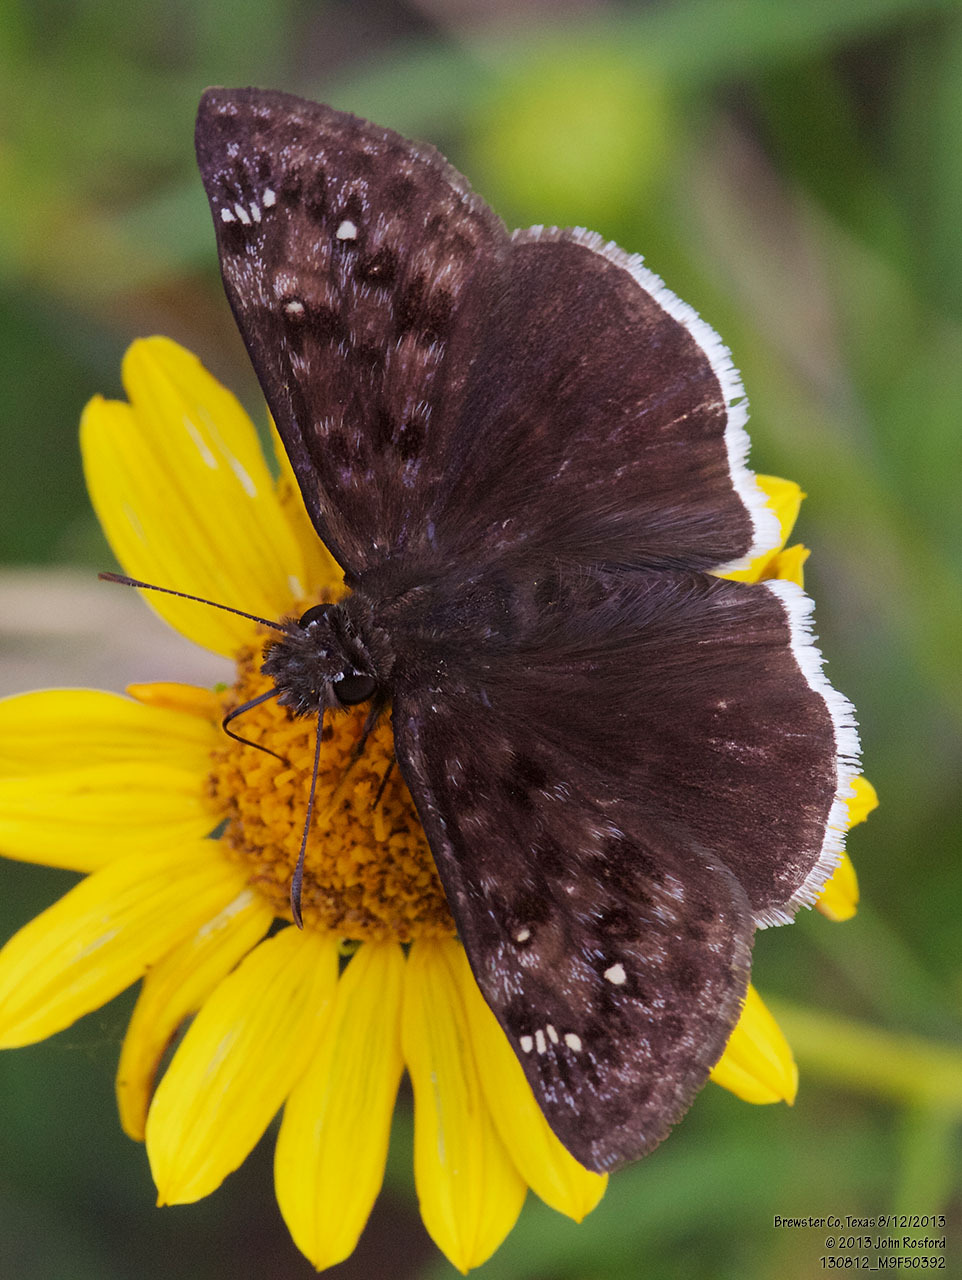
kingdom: Animalia
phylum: Arthropoda
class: Insecta
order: Lepidoptera
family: Hesperiidae
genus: Erynnis
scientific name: Erynnis tristis
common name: Mournful duskywing
